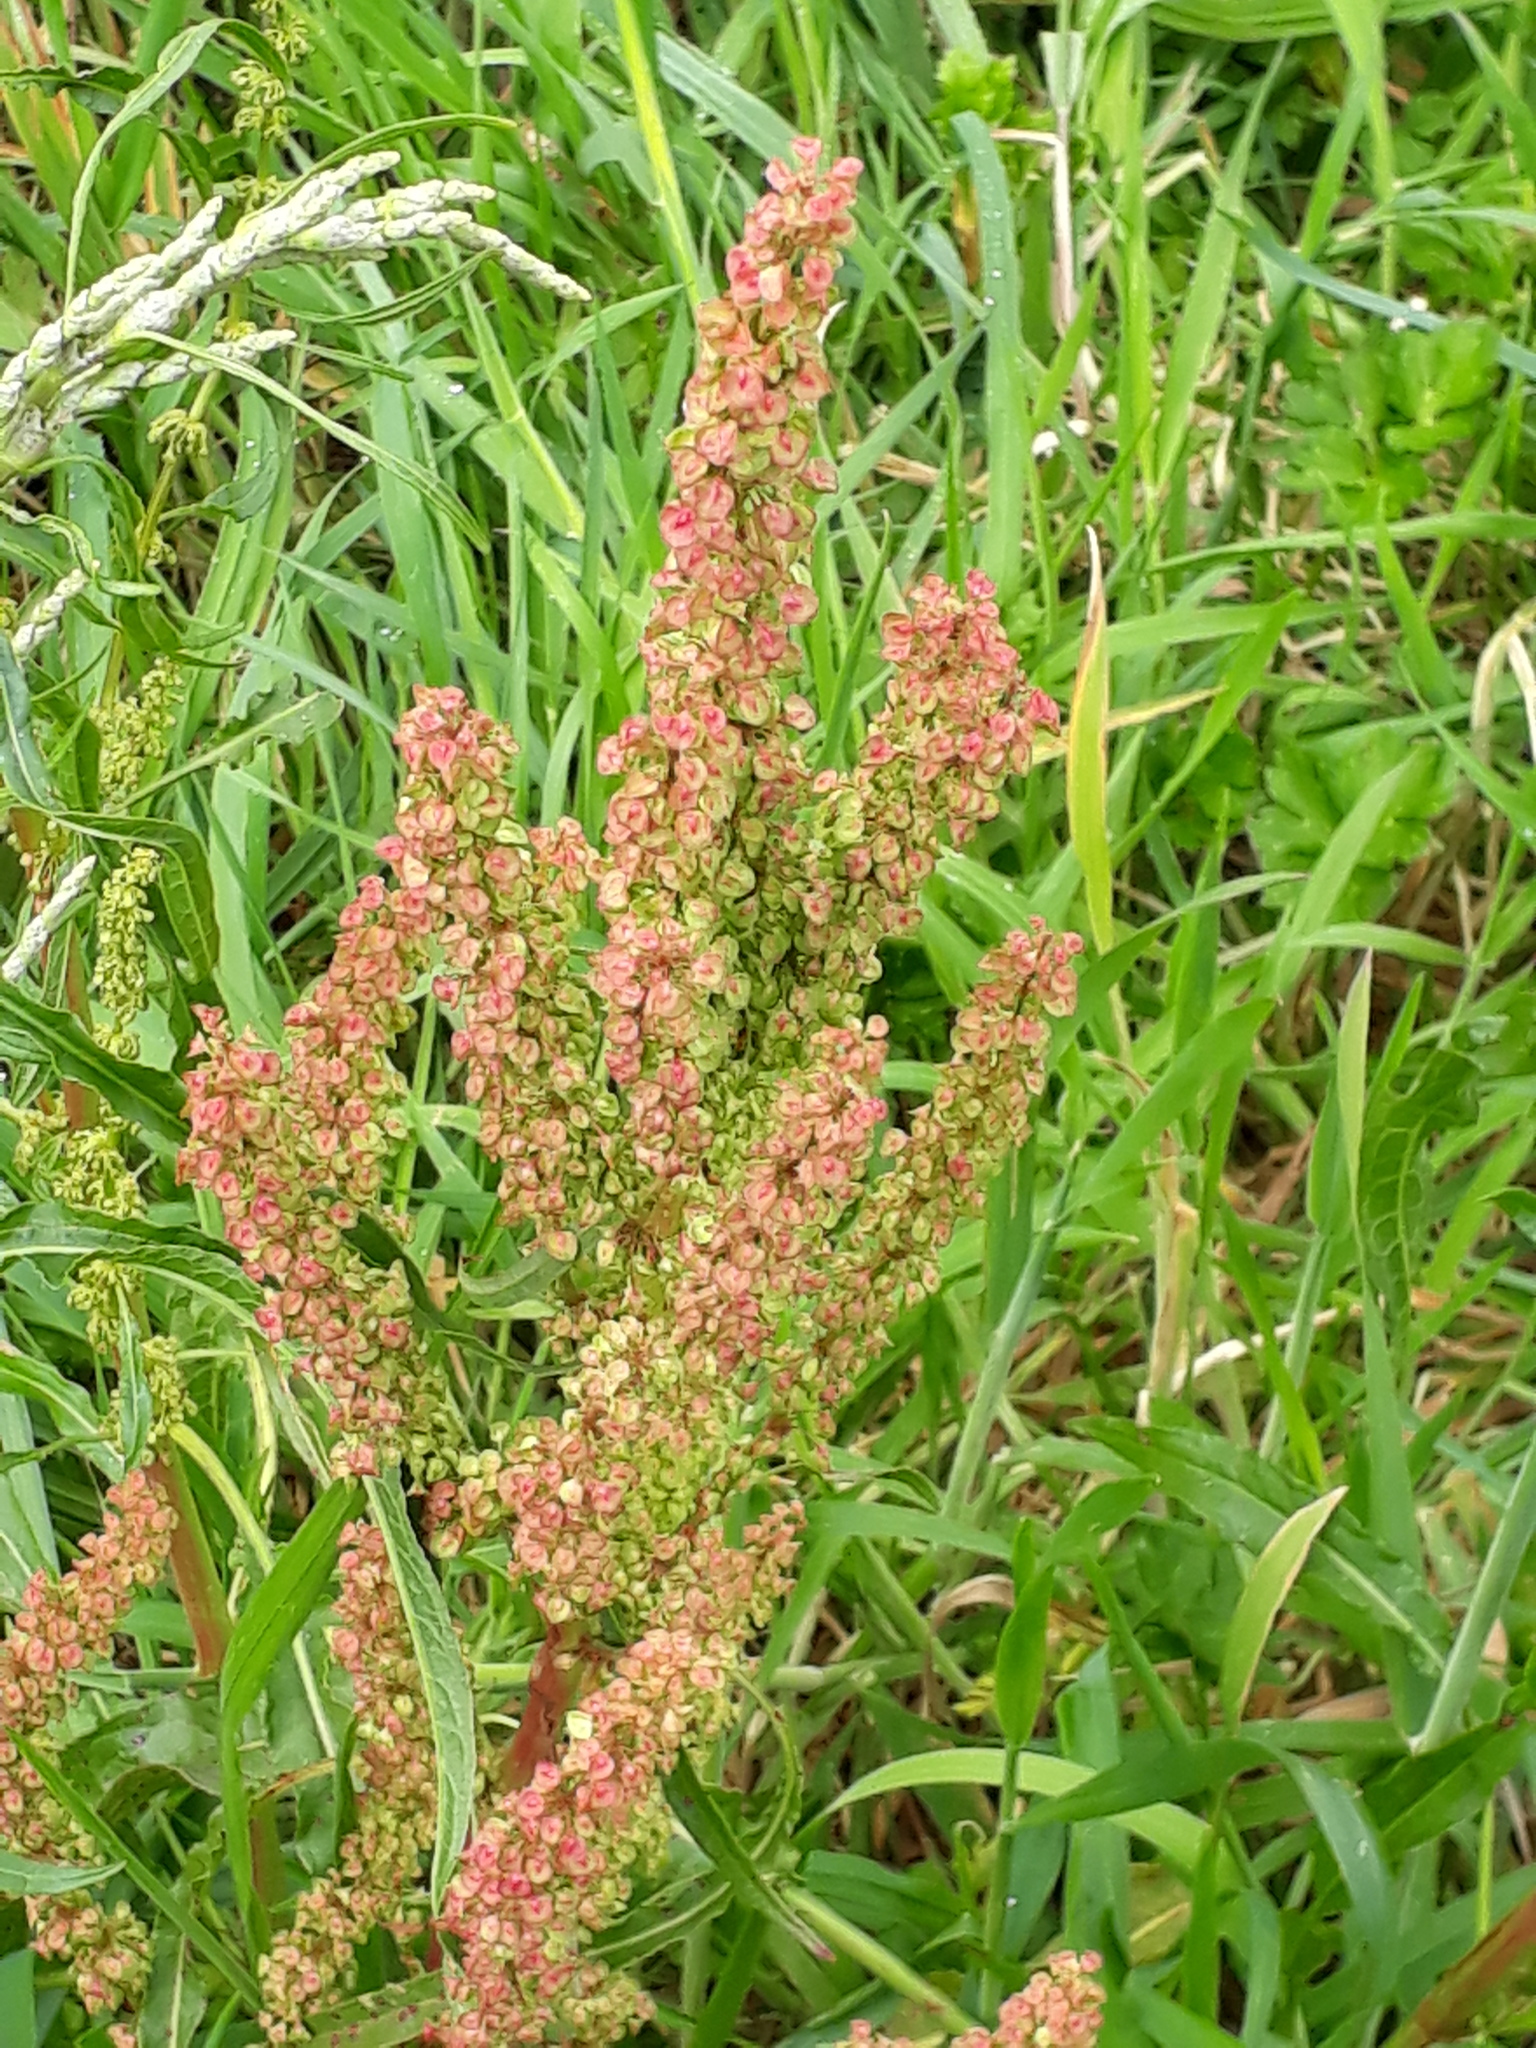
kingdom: Plantae
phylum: Tracheophyta
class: Magnoliopsida
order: Caryophyllales
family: Polygonaceae
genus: Rumex
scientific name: Rumex crispus
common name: Curled dock
